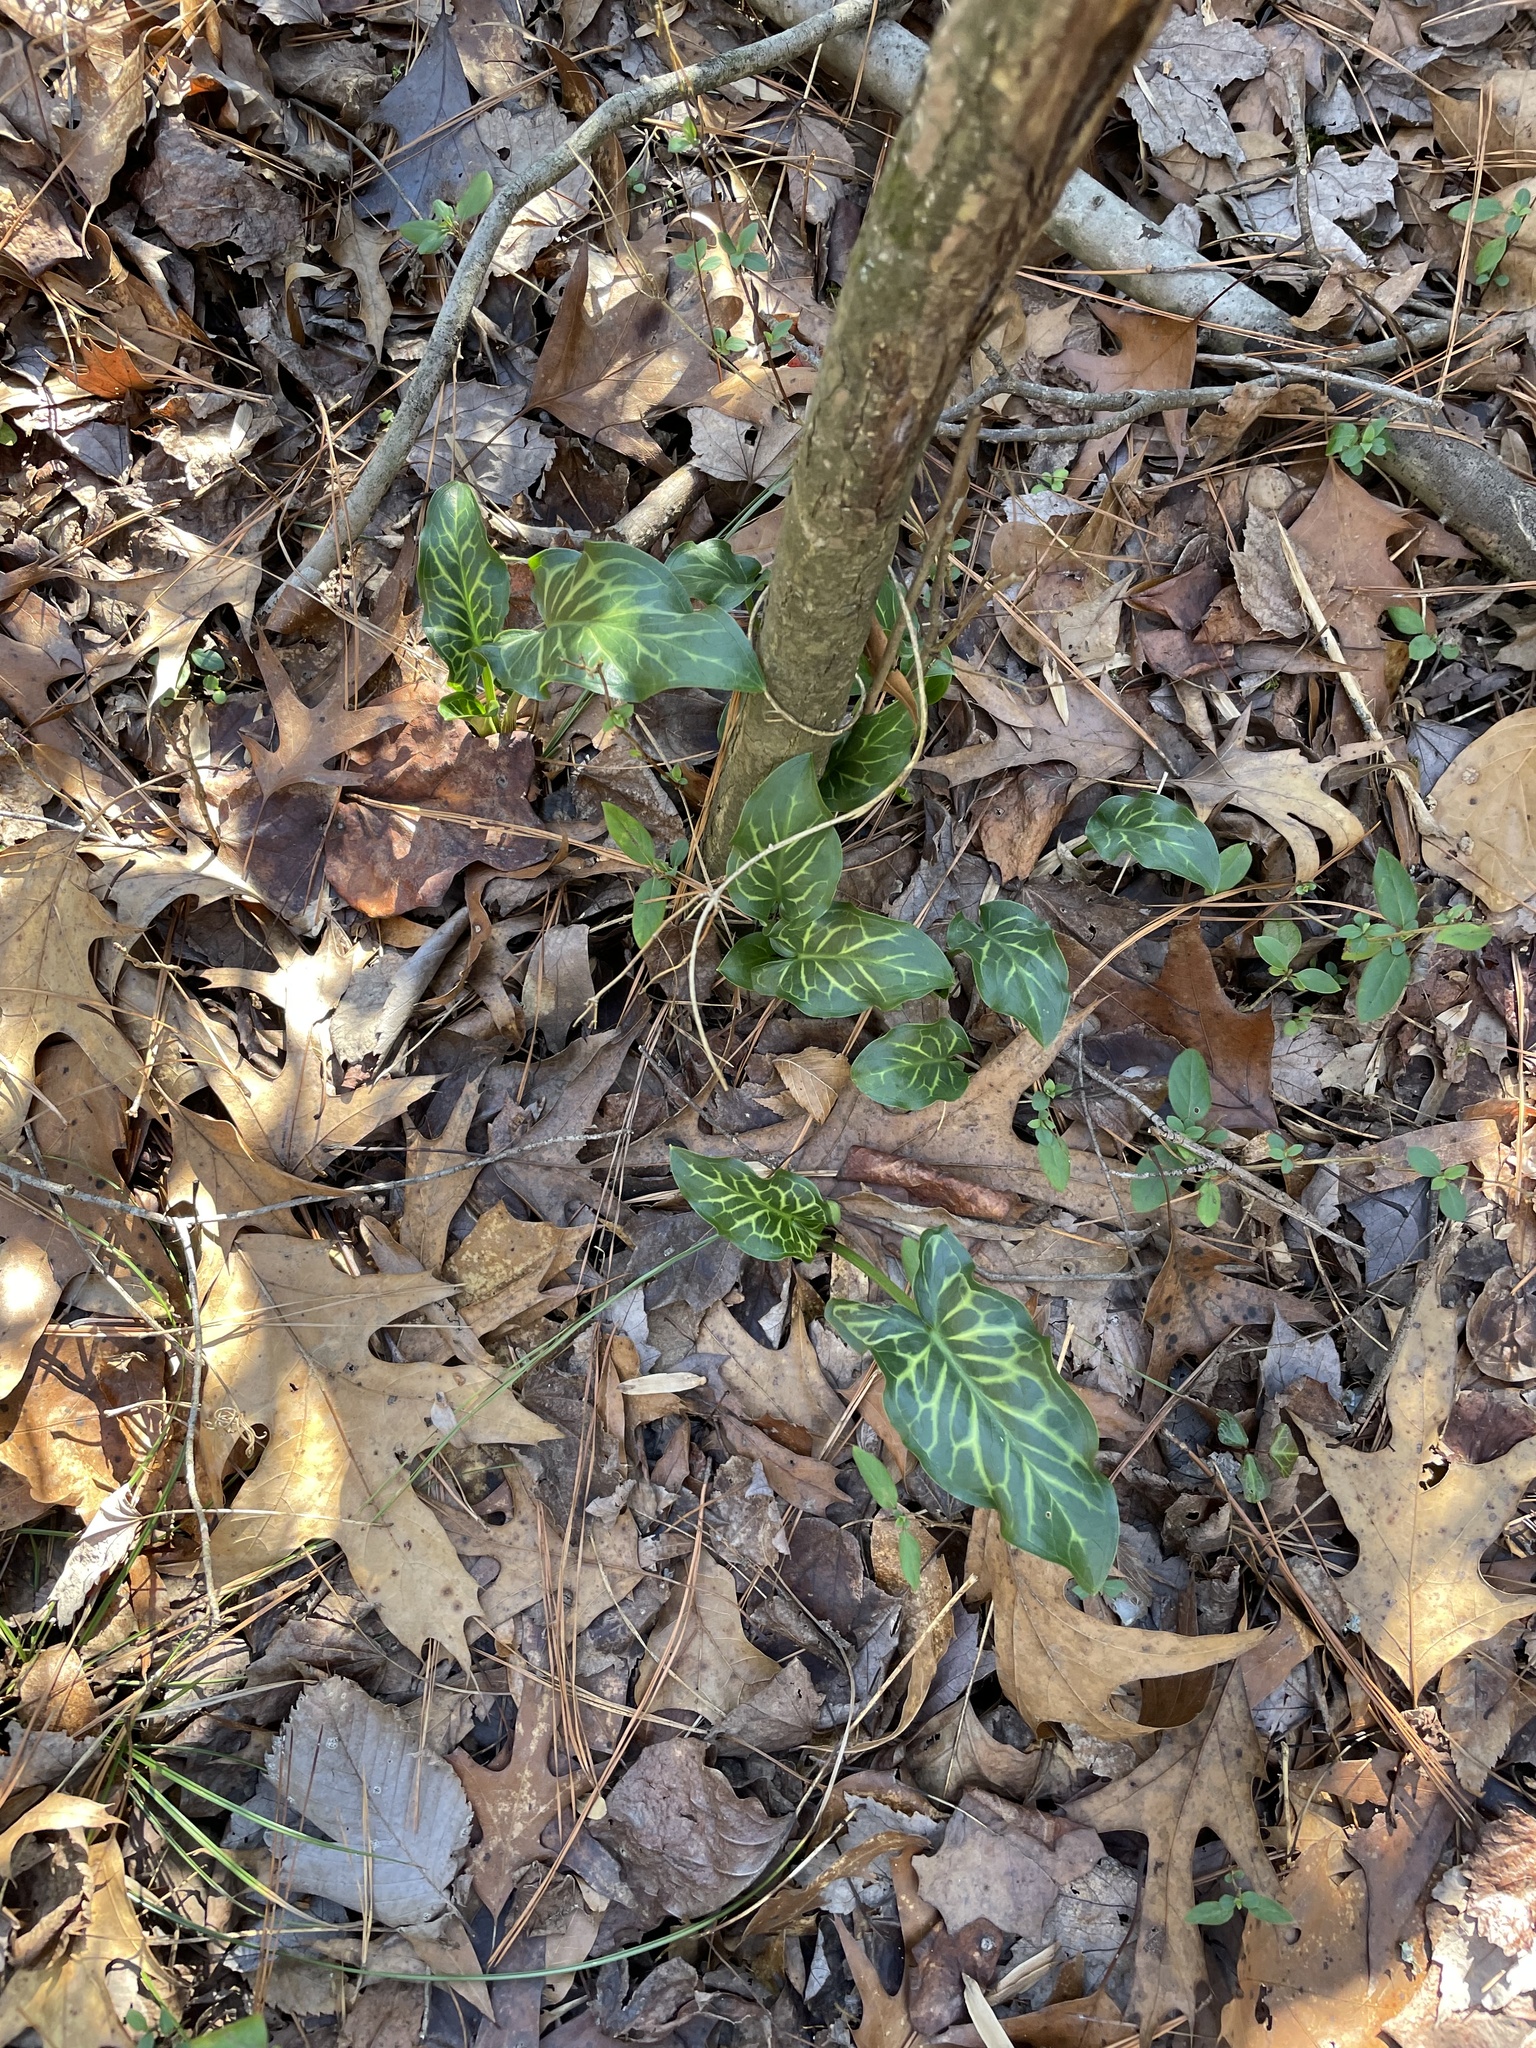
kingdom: Plantae
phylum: Tracheophyta
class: Liliopsida
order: Alismatales
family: Araceae
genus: Arum
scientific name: Arum italicum
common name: Italian lords-and-ladies
